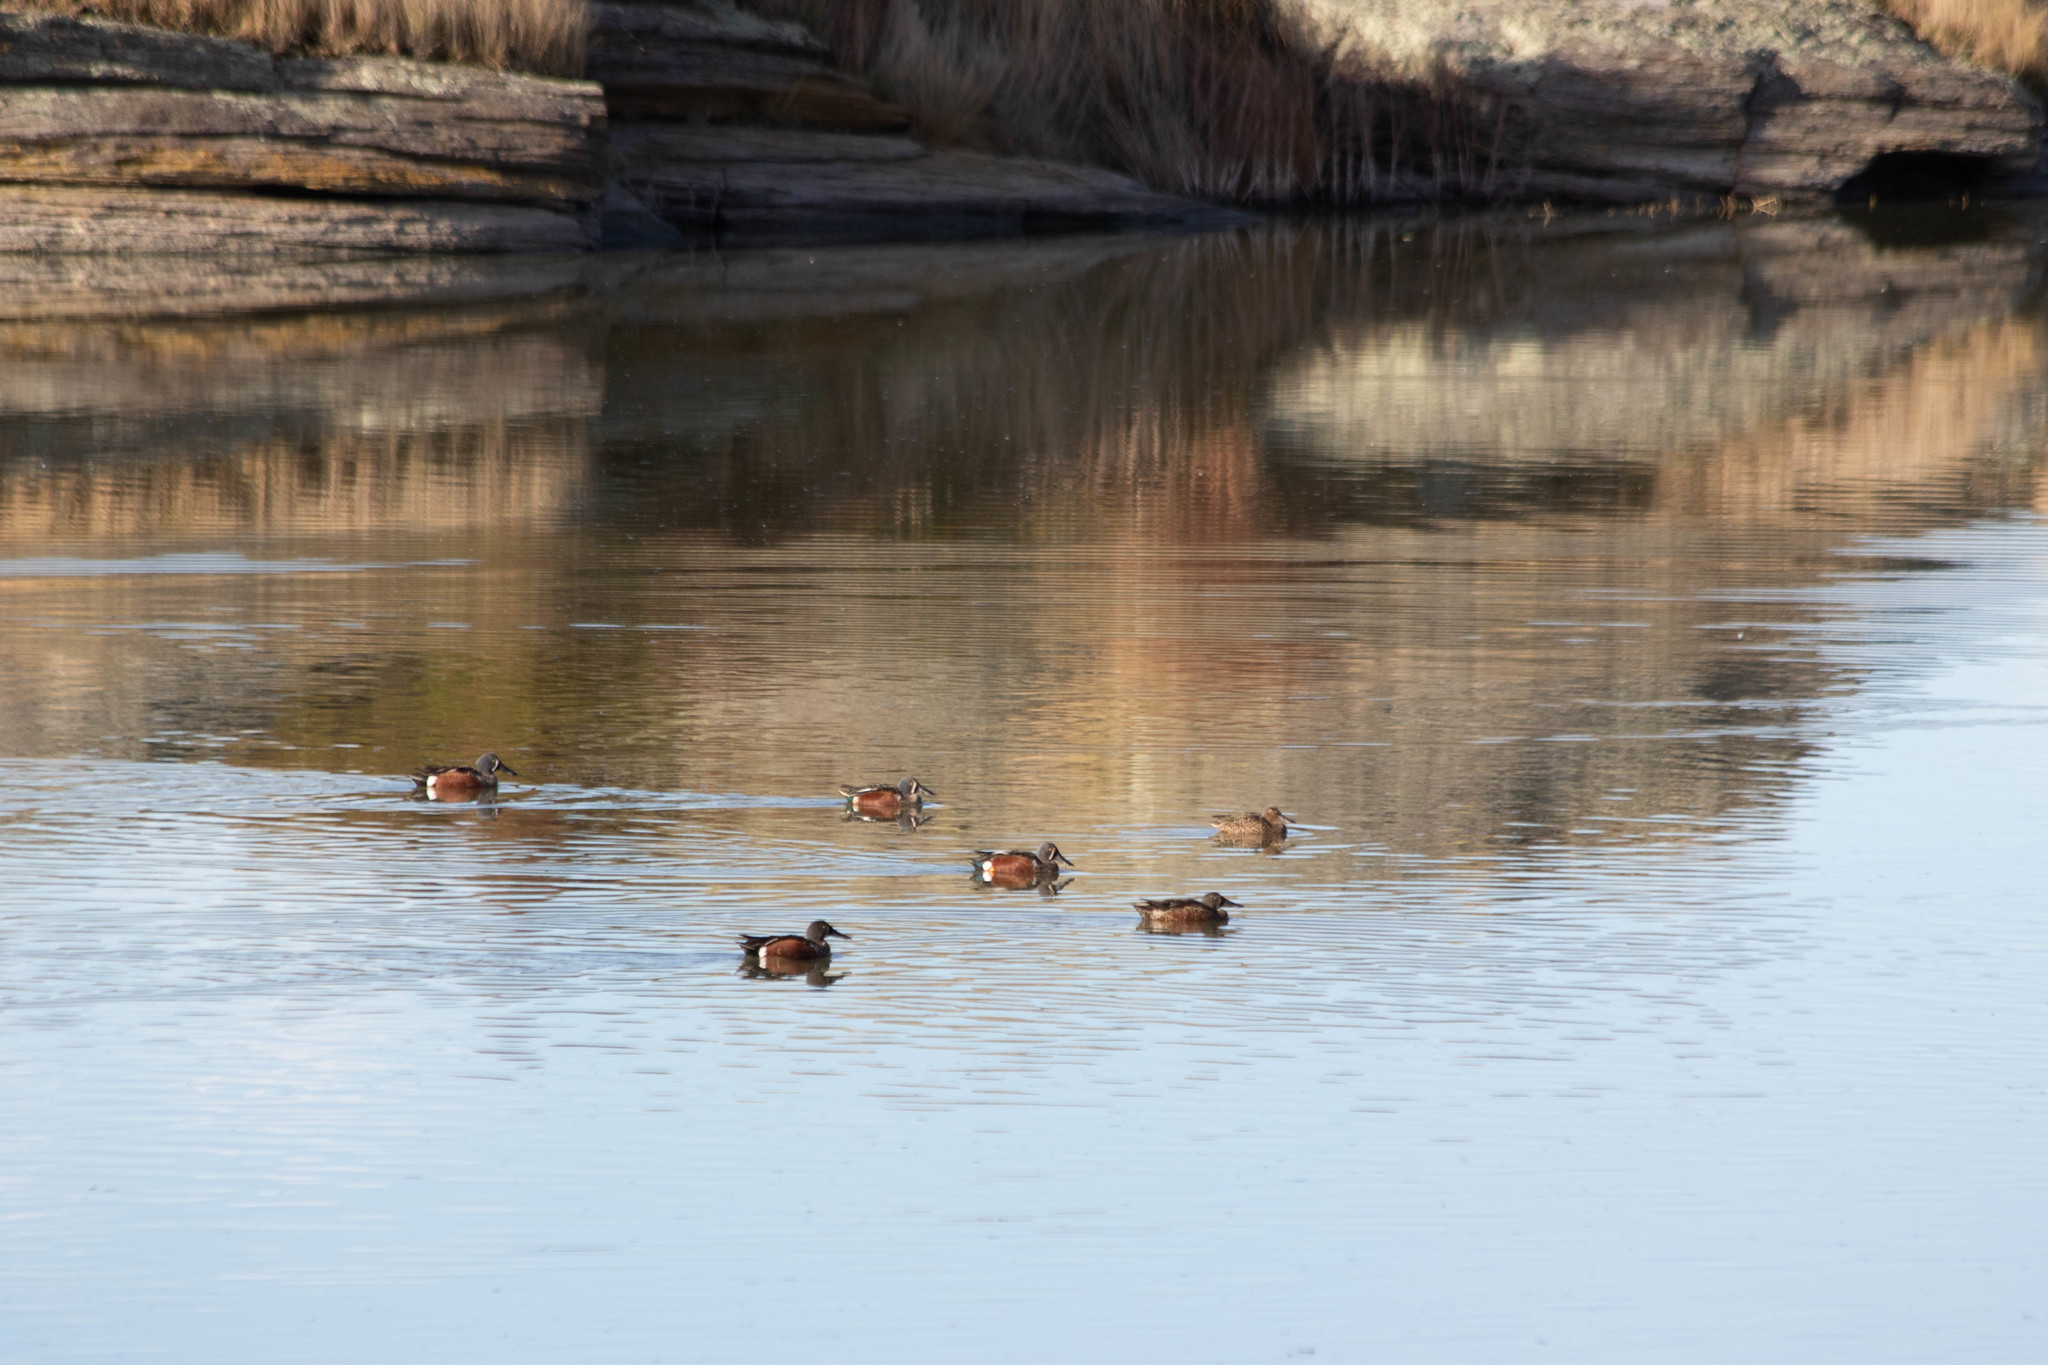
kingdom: Animalia
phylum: Chordata
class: Aves
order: Anseriformes
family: Anatidae
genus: Spatula
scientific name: Spatula rhynchotis
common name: Australian shoveler
